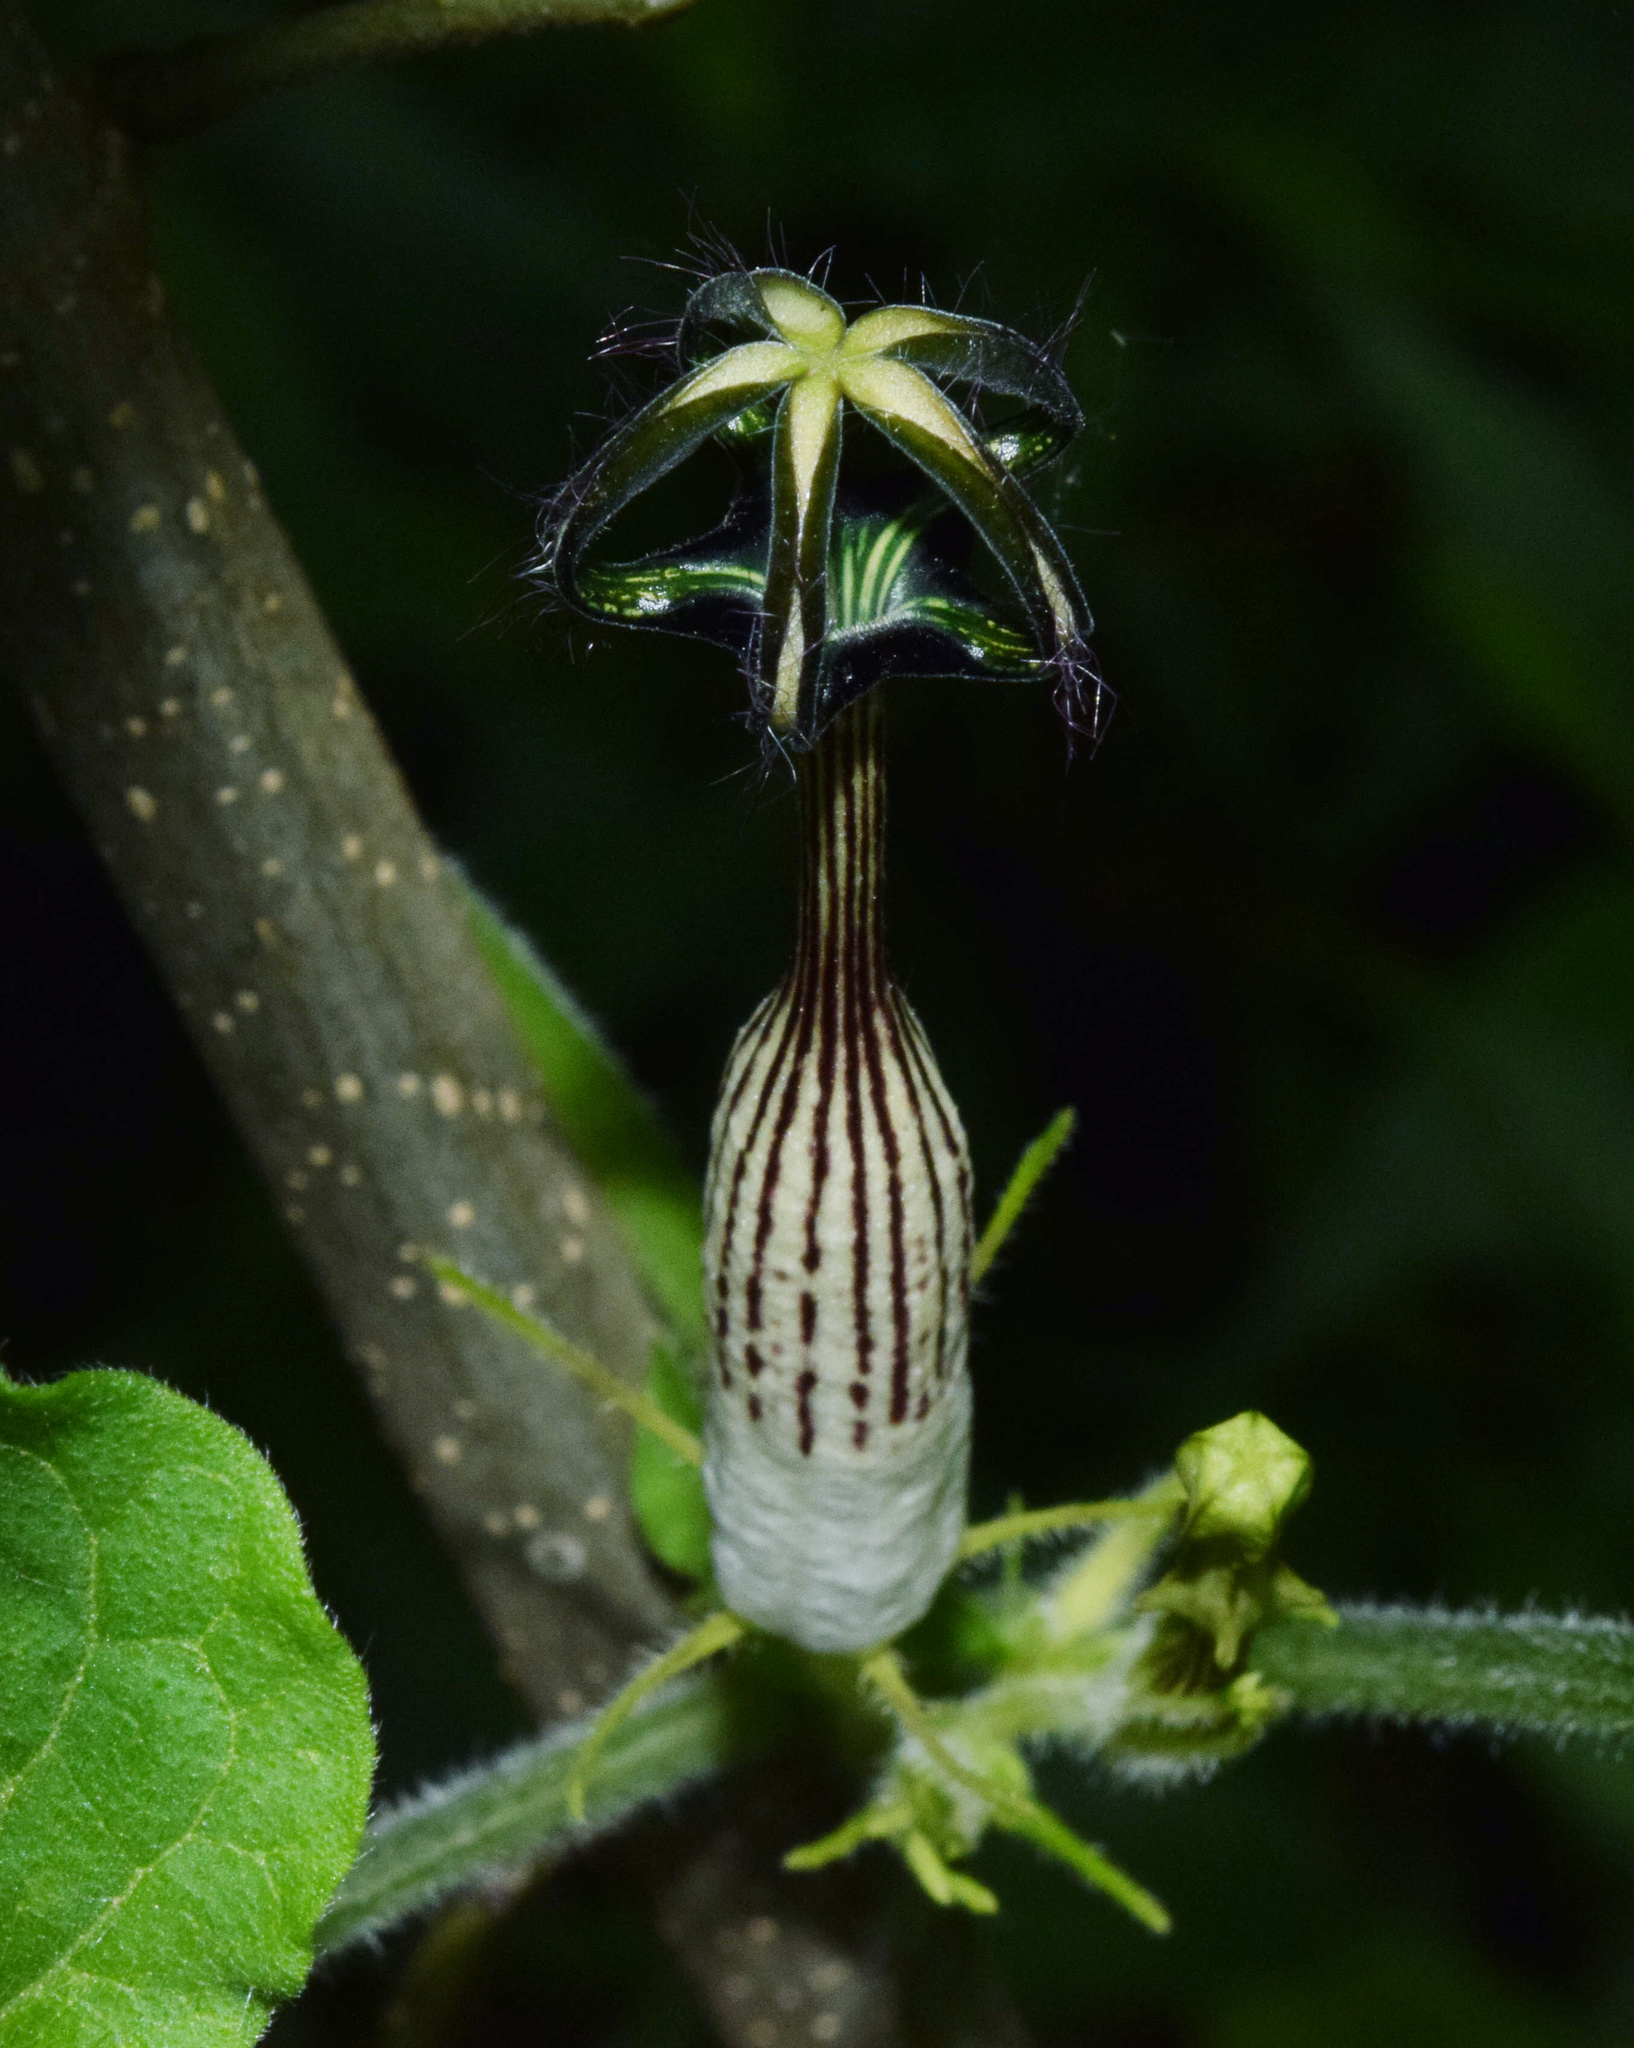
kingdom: Plantae
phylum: Tracheophyta
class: Magnoliopsida
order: Gentianales
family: Apocynaceae
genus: Ceropegia
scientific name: Ceropegia meyeri
